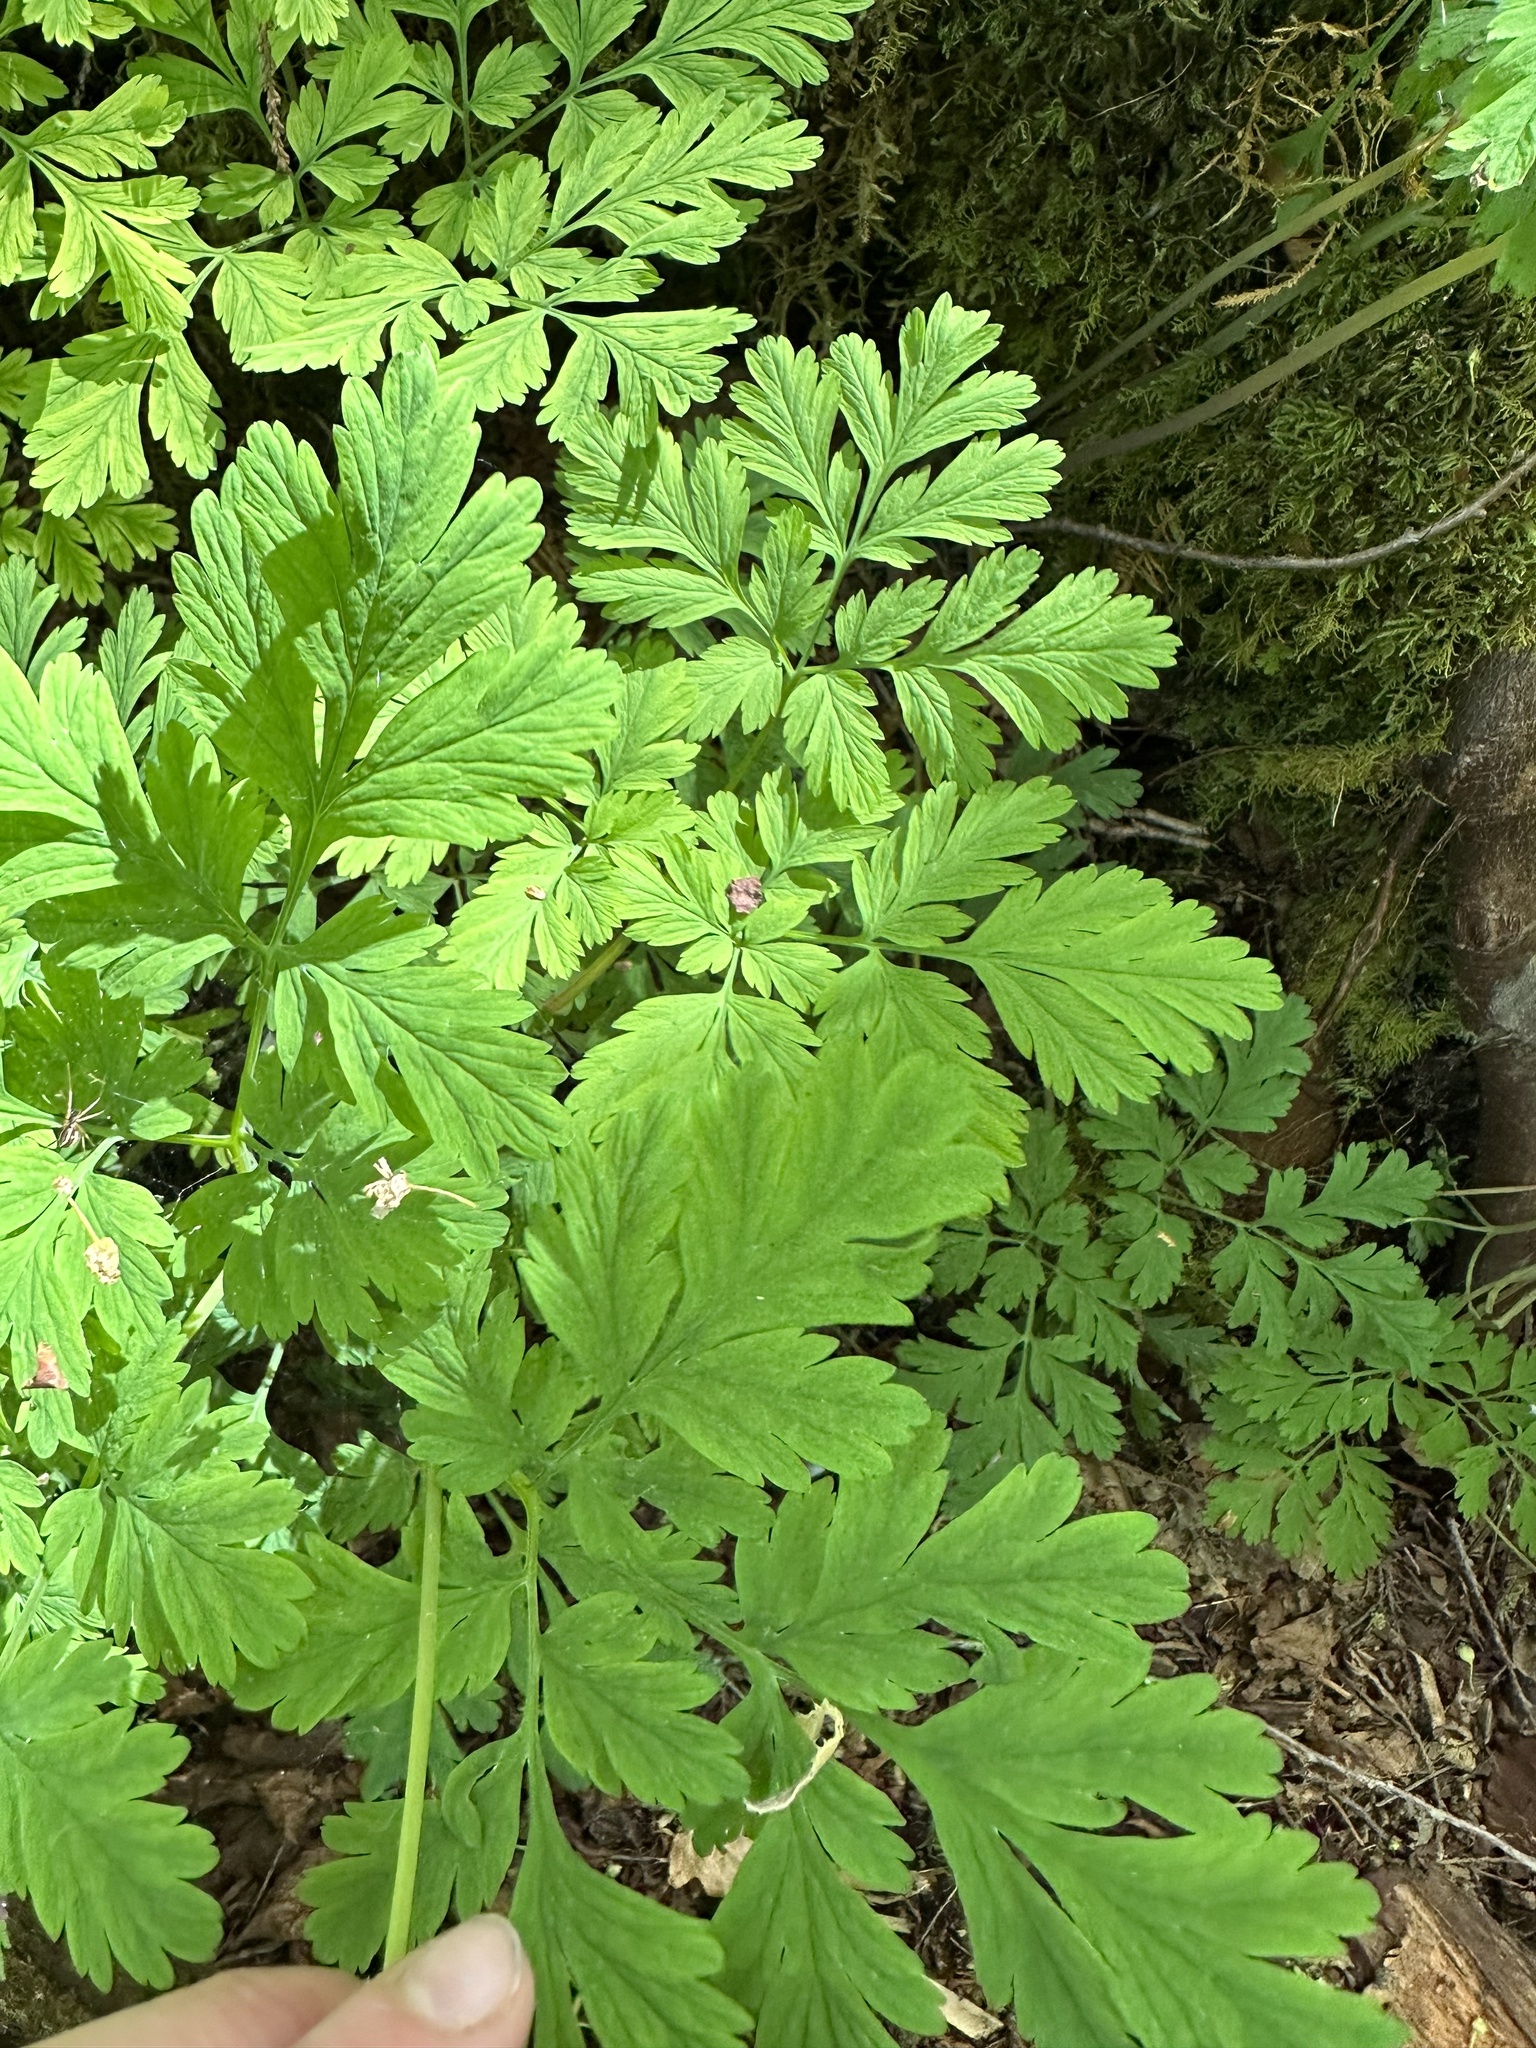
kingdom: Plantae
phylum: Tracheophyta
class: Magnoliopsida
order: Ranunculales
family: Papaveraceae
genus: Dicentra
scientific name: Dicentra formosa
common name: Bleeding-heart
